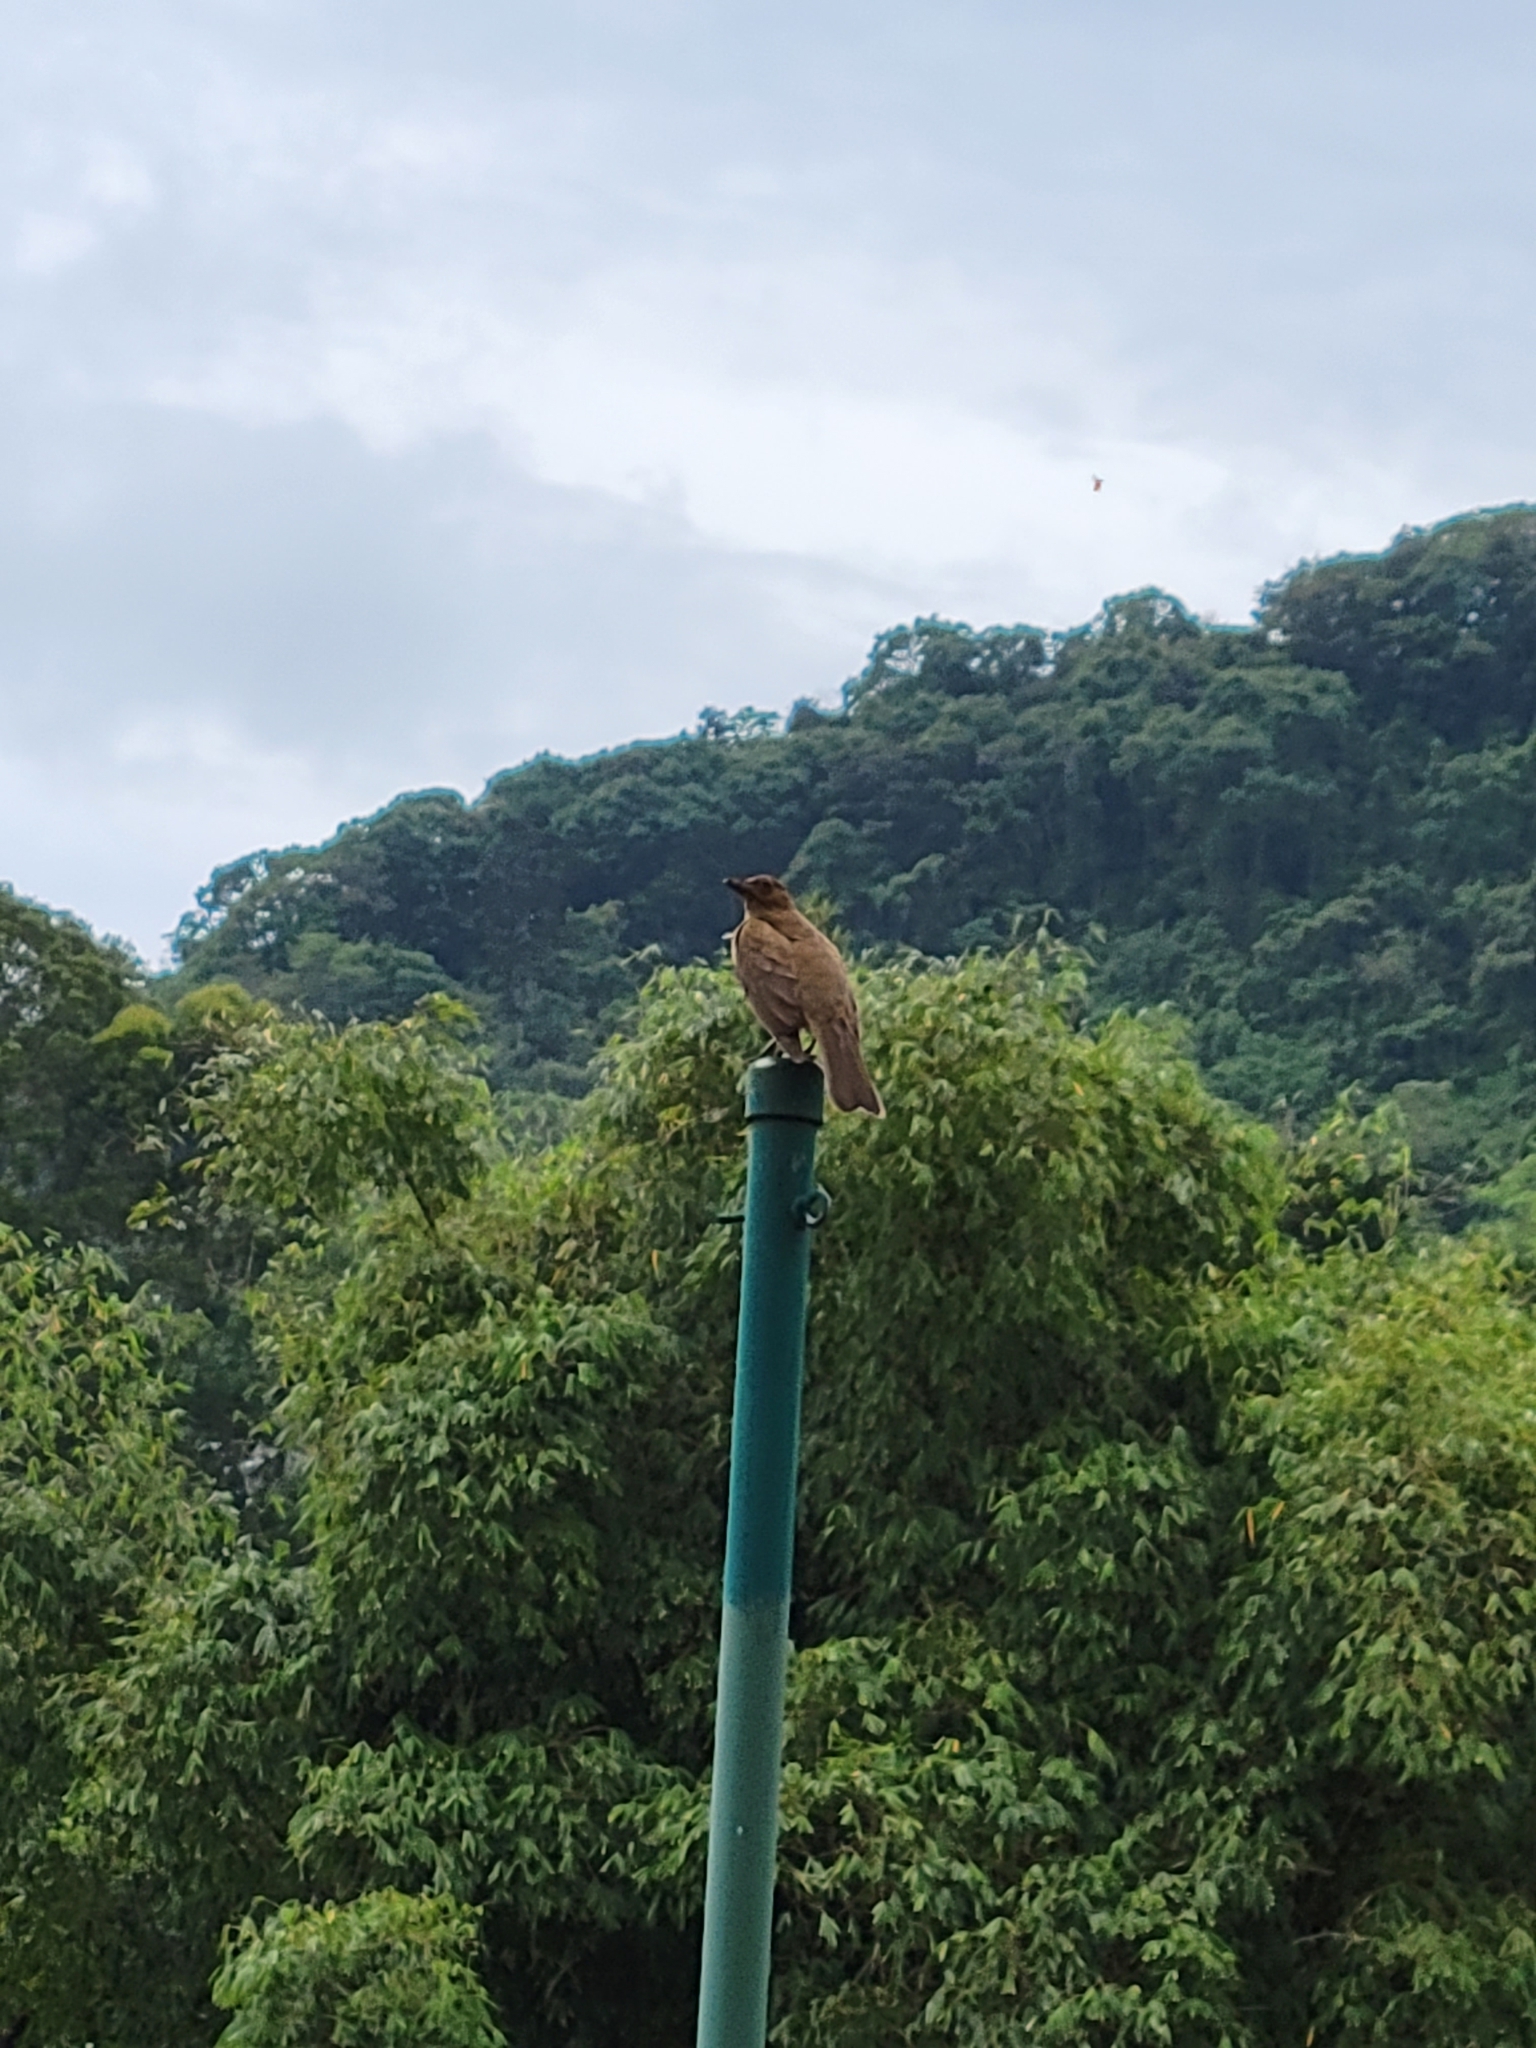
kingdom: Animalia
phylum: Chordata
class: Aves
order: Passeriformes
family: Turdidae
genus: Turdus
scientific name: Turdus grayi
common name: Clay-colored thrush
